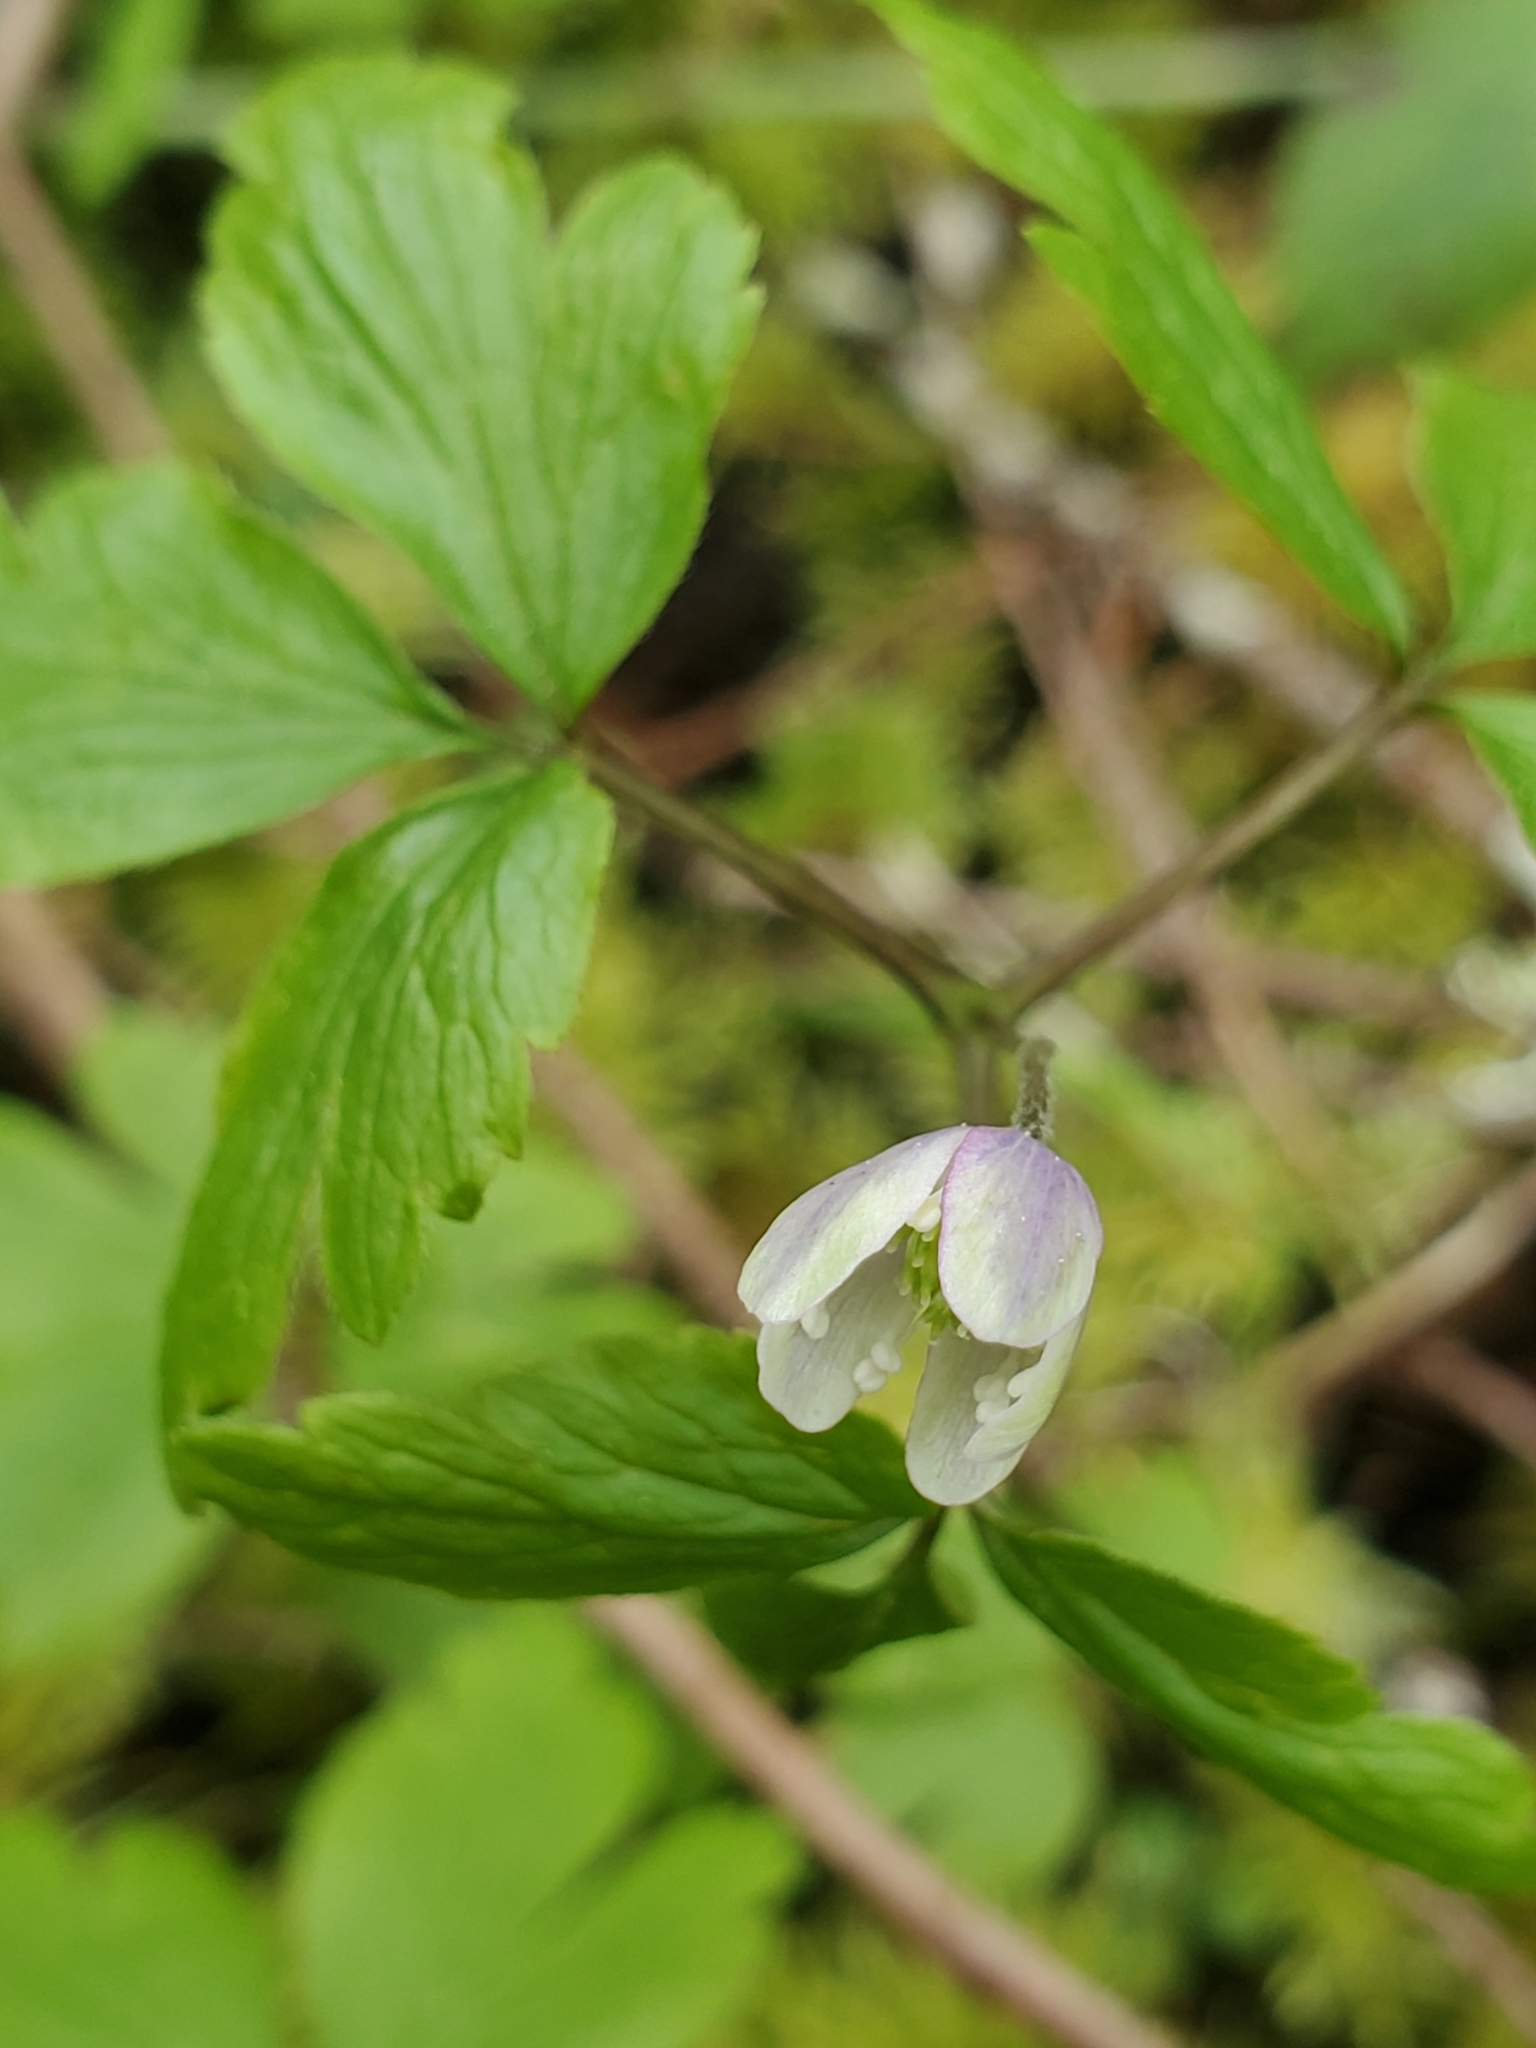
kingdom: Plantae
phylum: Tracheophyta
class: Magnoliopsida
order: Ranunculales
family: Ranunculaceae
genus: Anemone
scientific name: Anemone
